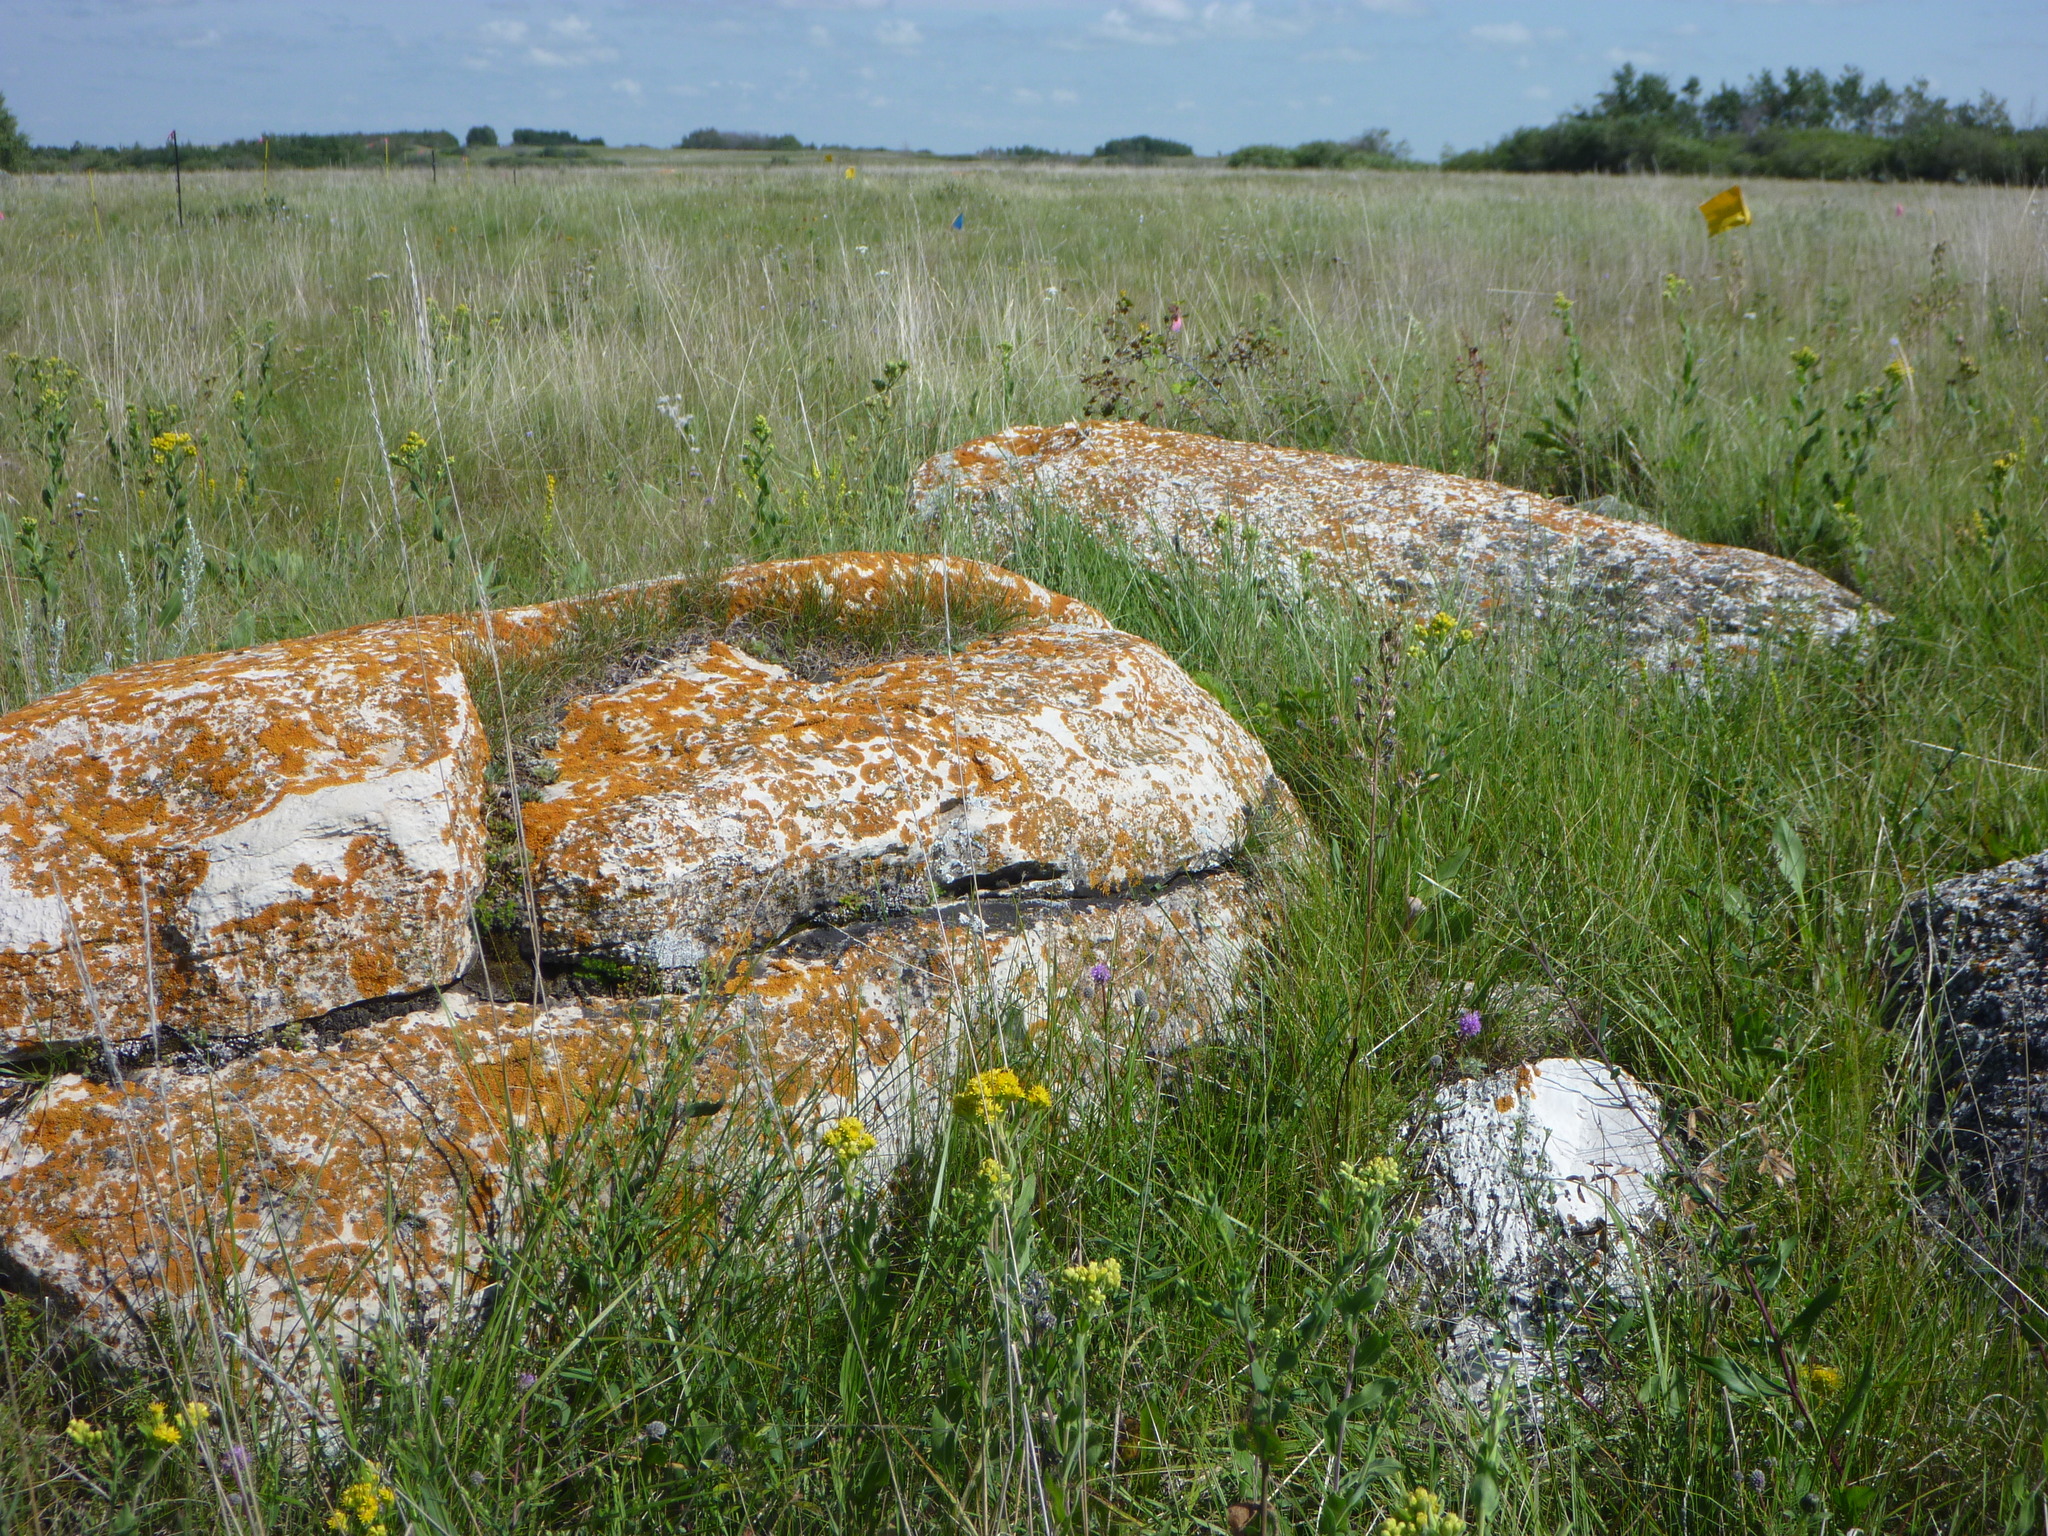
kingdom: Plantae
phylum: Tracheophyta
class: Magnoliopsida
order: Asterales
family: Asteraceae
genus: Solidago
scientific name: Solidago rigida
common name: Rigid goldenrod
